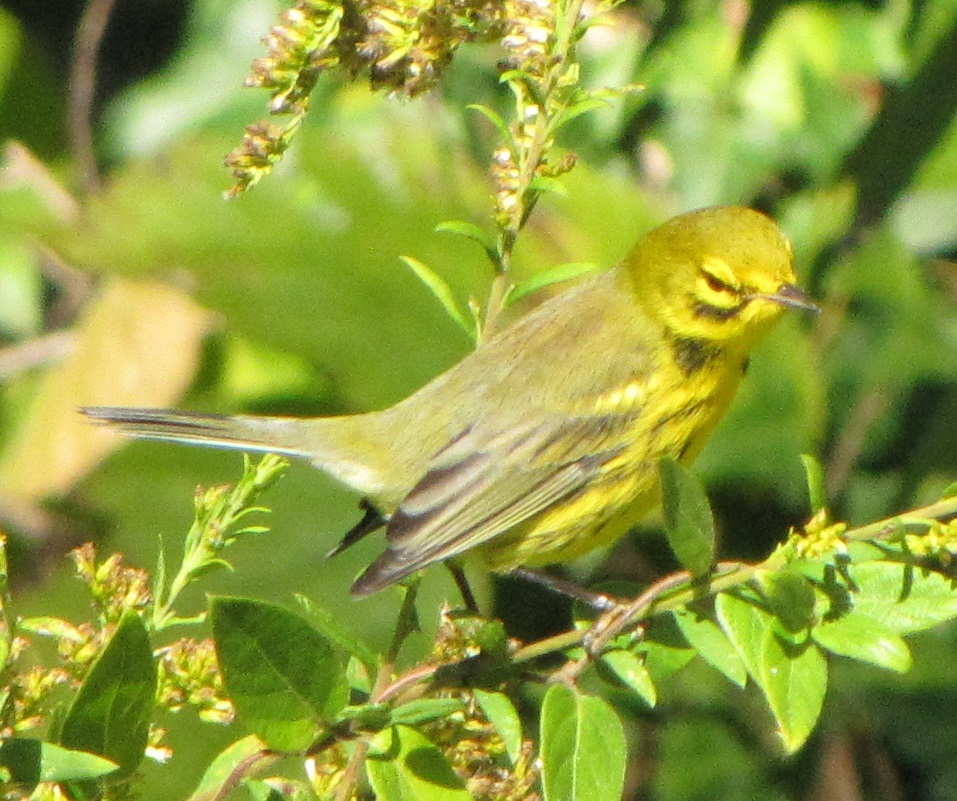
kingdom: Animalia
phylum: Chordata
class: Aves
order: Passeriformes
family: Parulidae
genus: Setophaga
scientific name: Setophaga discolor
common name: Prairie warbler
